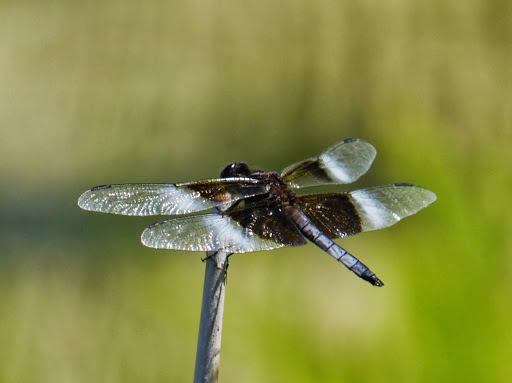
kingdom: Animalia
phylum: Arthropoda
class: Insecta
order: Odonata
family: Libellulidae
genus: Libellula
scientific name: Libellula luctuosa
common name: Widow skimmer
